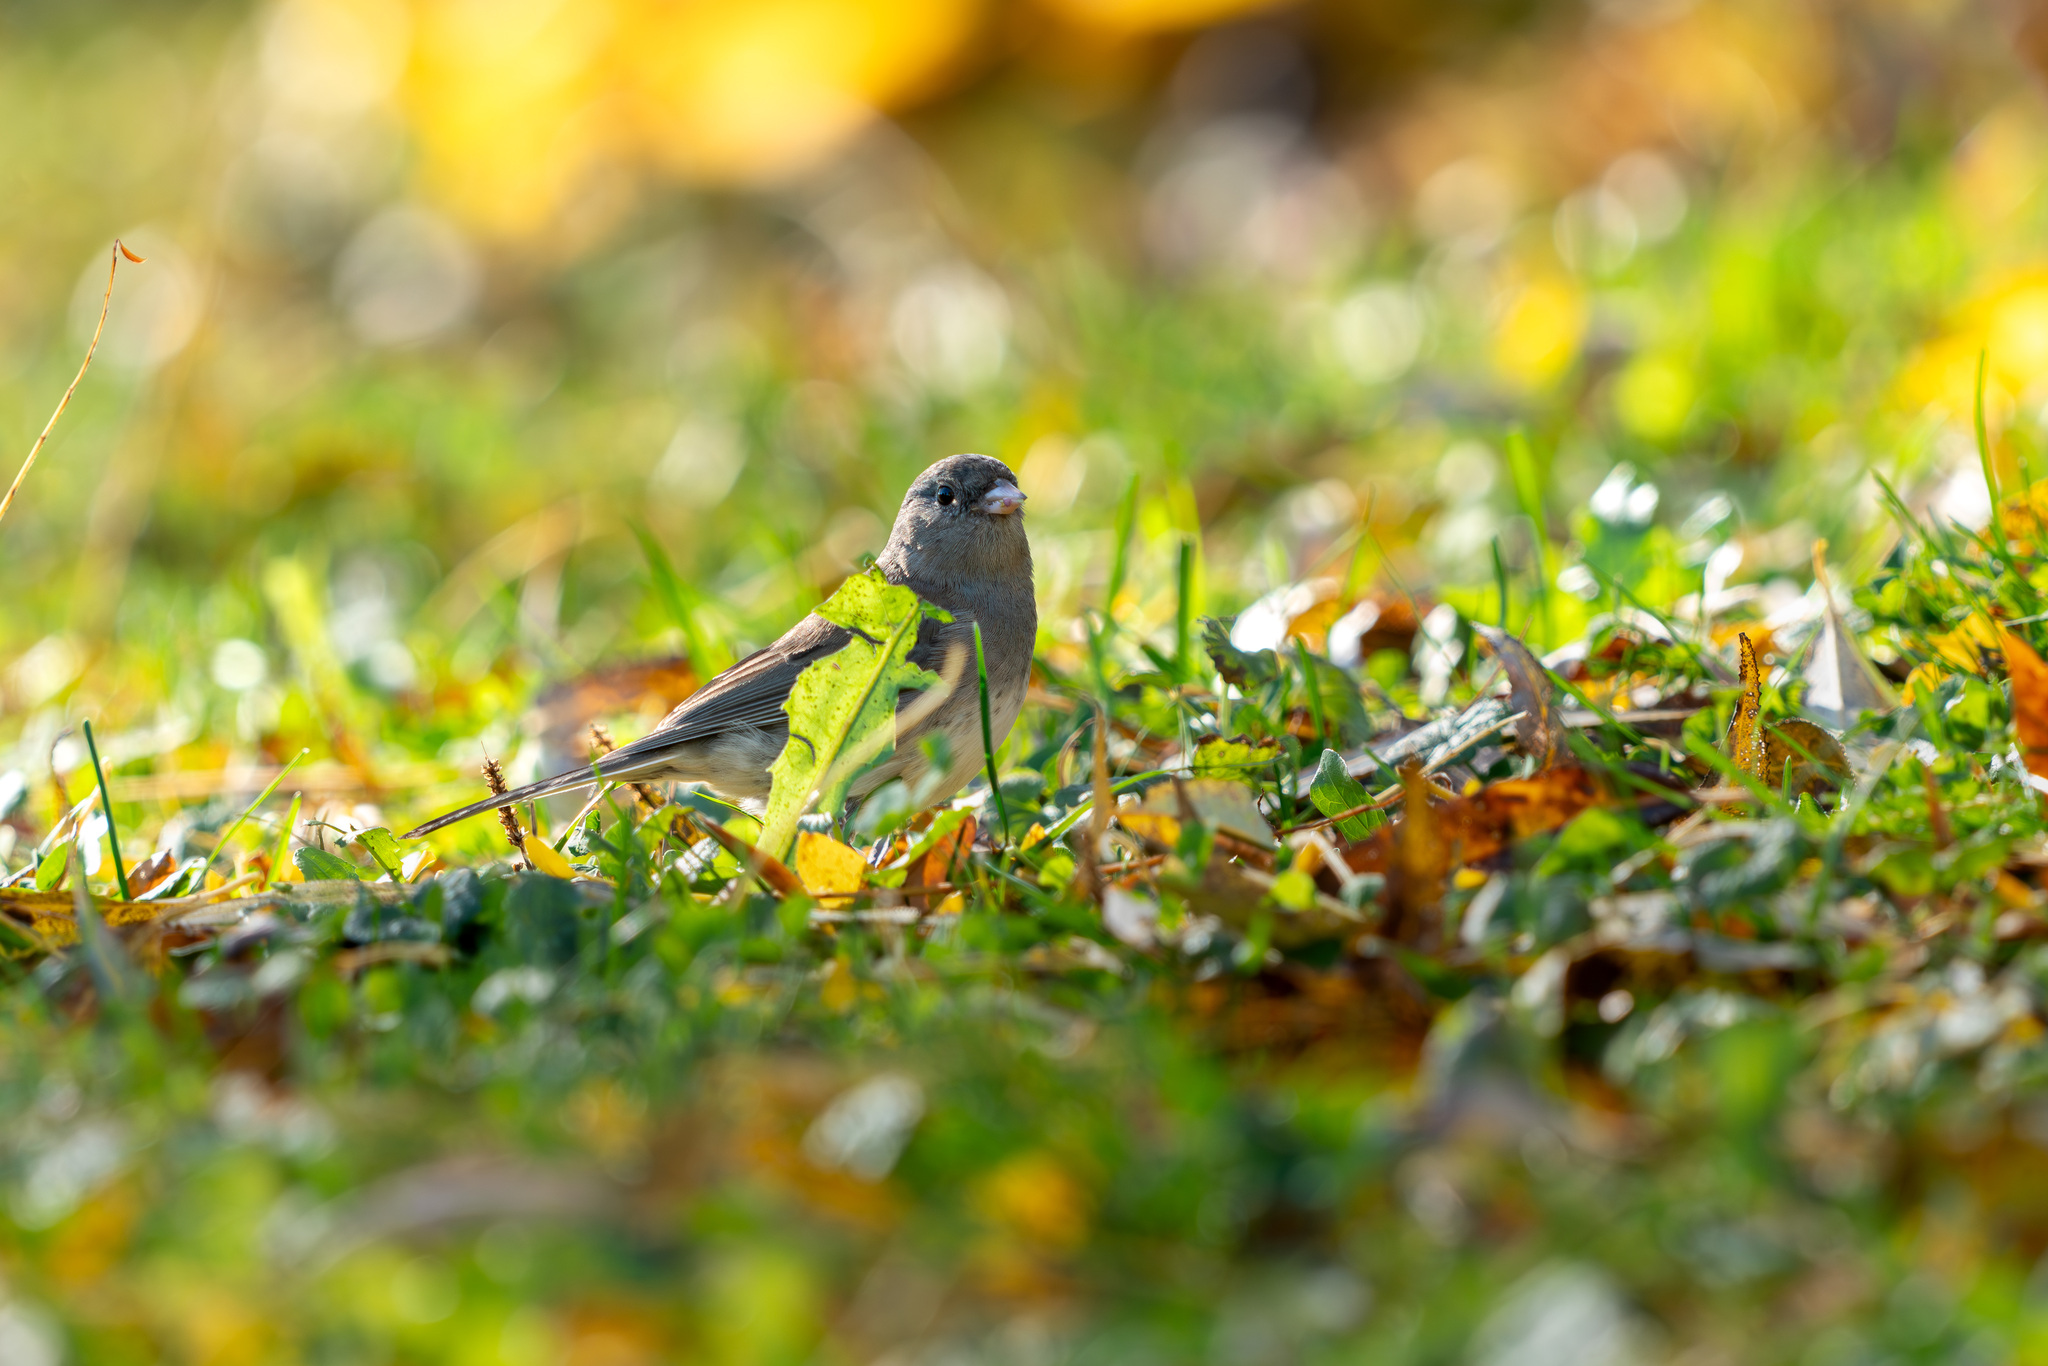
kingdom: Animalia
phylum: Chordata
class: Aves
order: Passeriformes
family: Passerellidae
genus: Junco
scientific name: Junco hyemalis
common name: Dark-eyed junco
